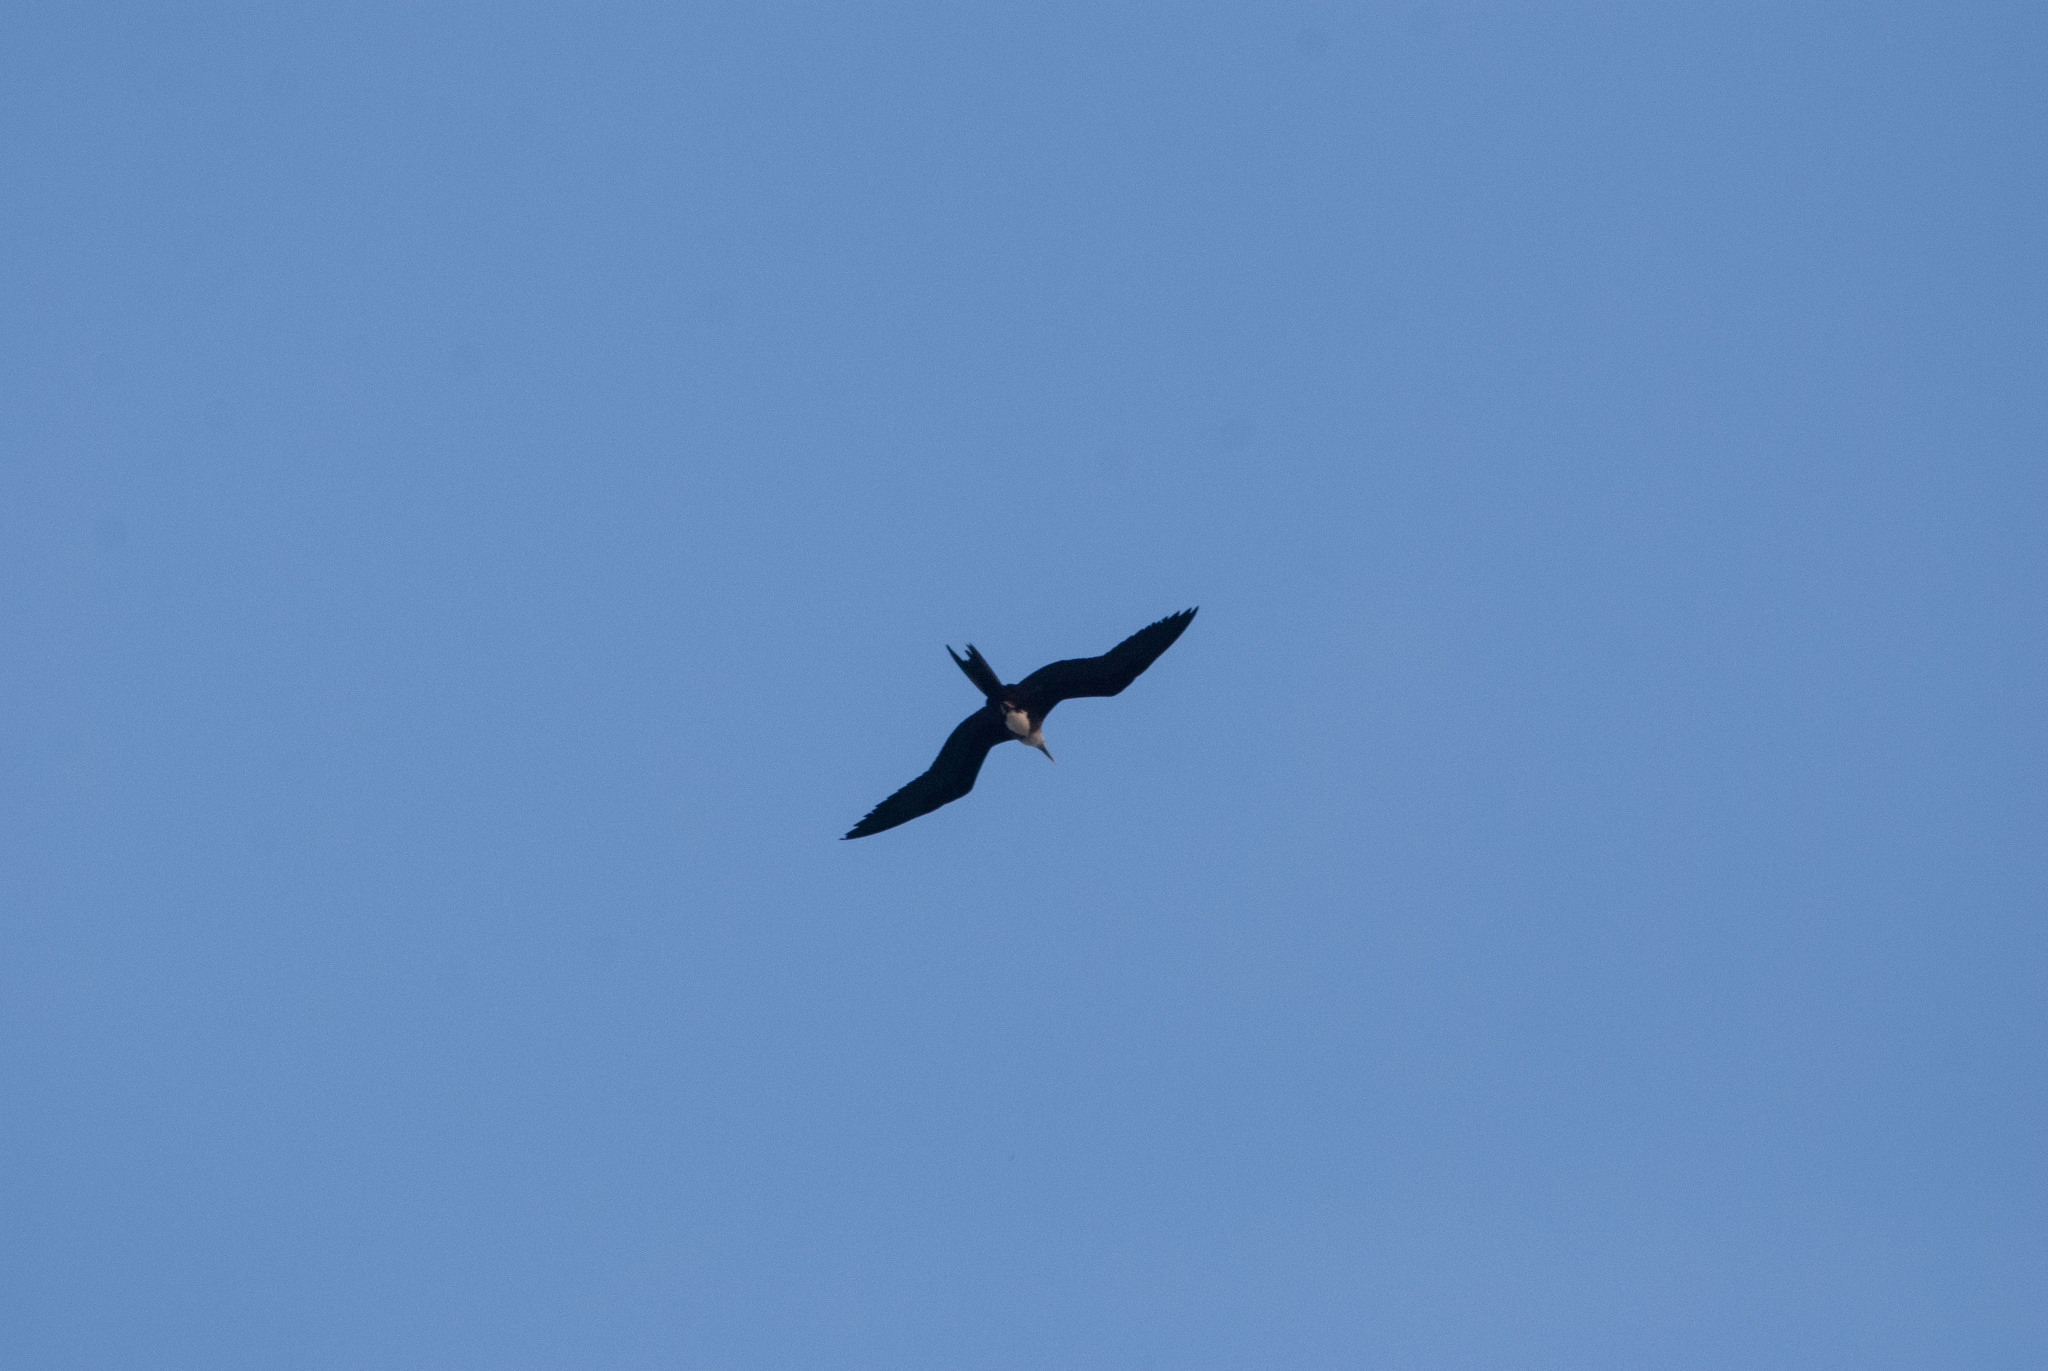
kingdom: Animalia
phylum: Chordata
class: Aves
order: Suliformes
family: Fregatidae
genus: Fregata
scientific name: Fregata magnificens
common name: Magnificent frigatebird
